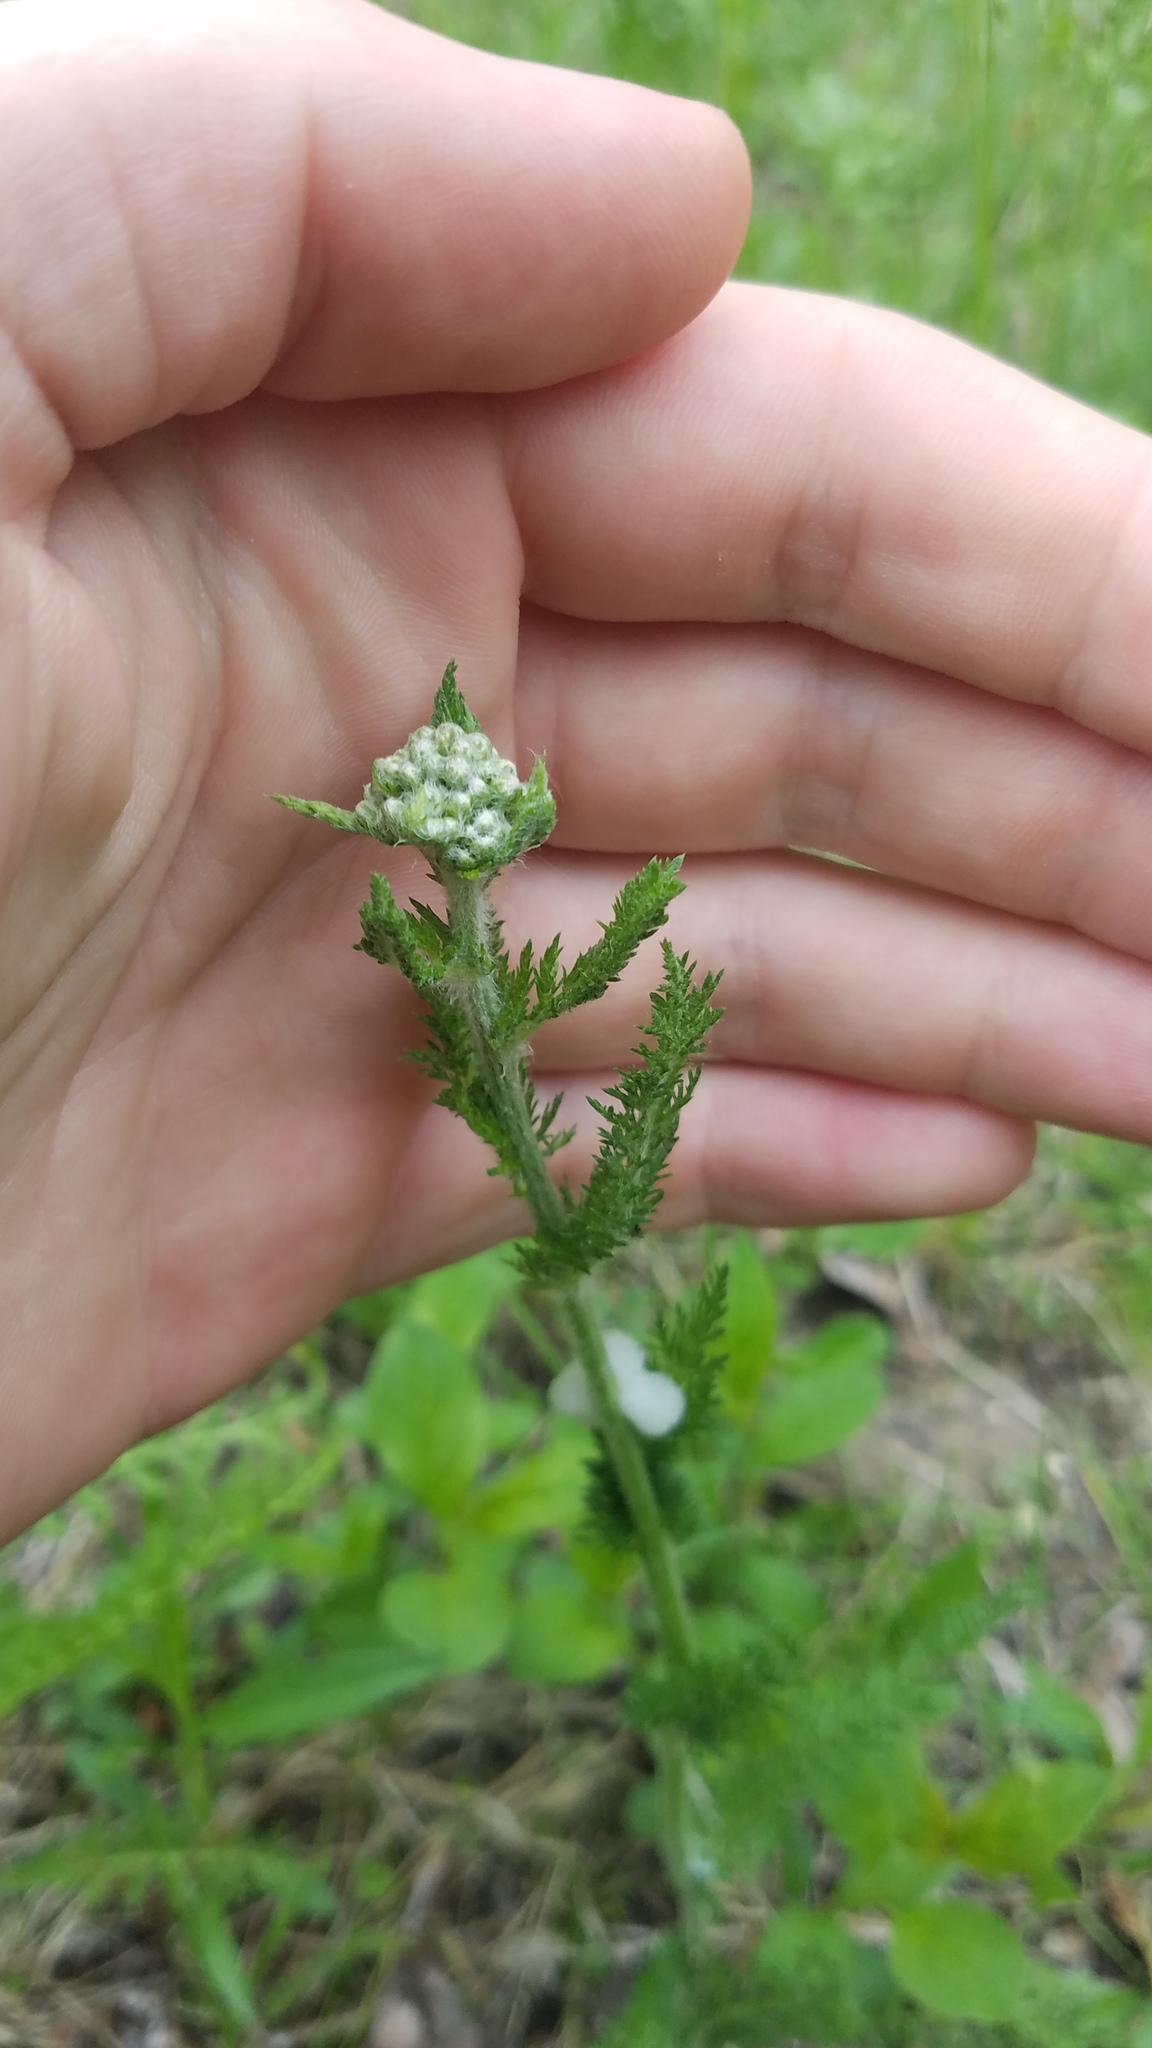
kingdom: Plantae
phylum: Tracheophyta
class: Magnoliopsida
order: Asterales
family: Asteraceae
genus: Achillea
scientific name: Achillea millefolium
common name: Yarrow
